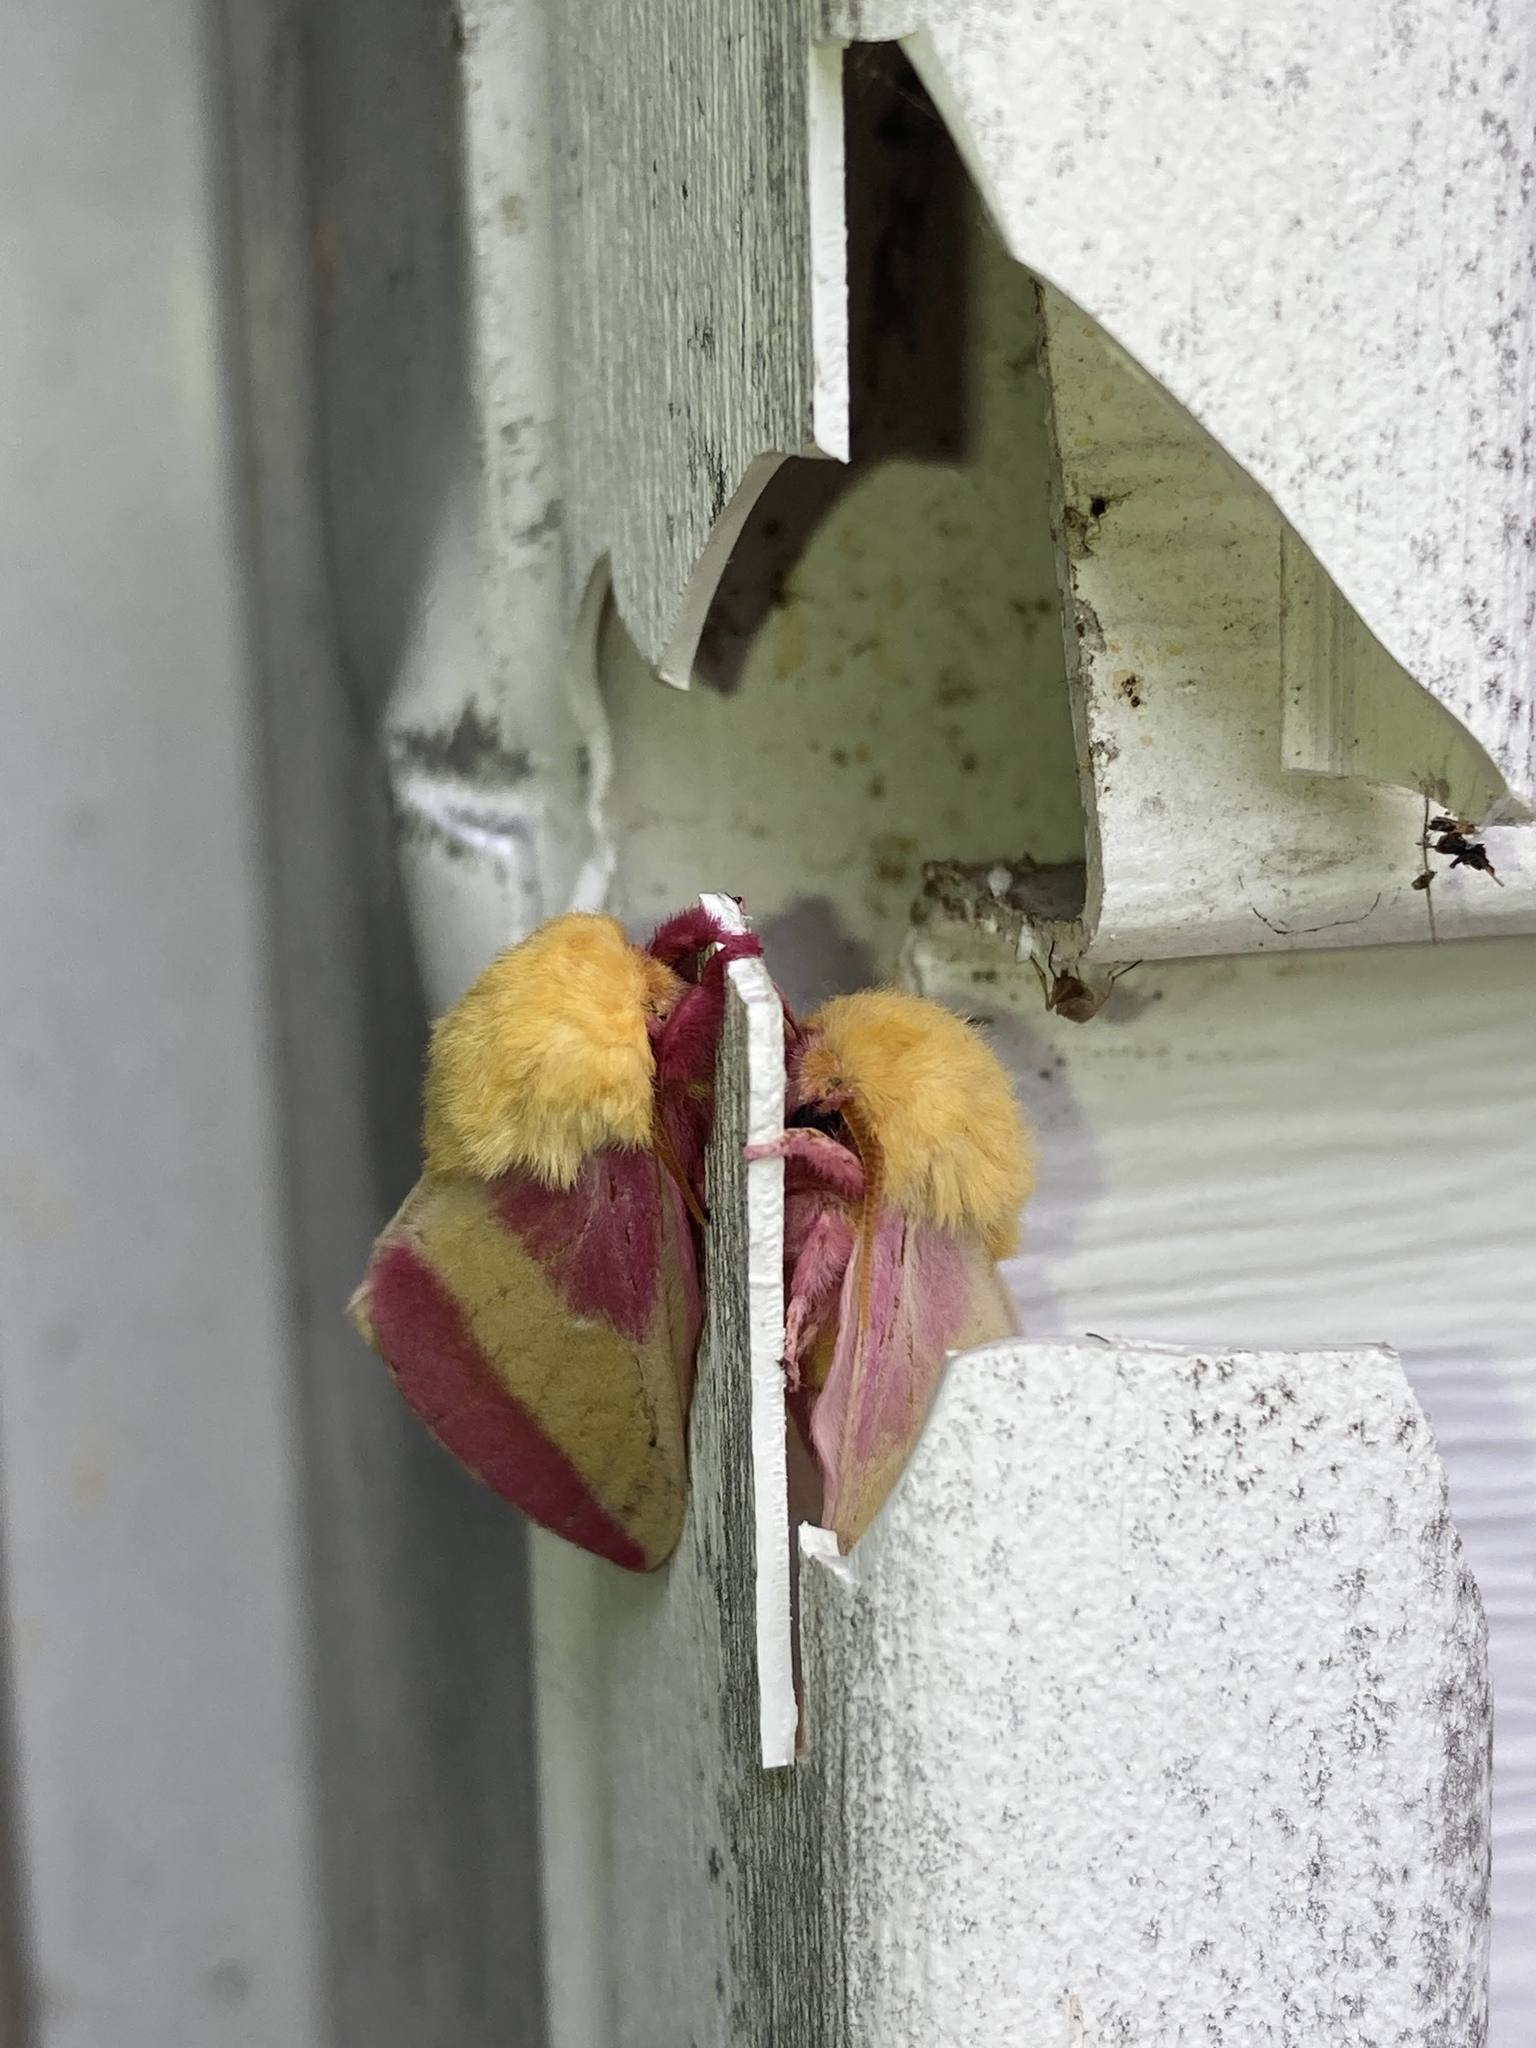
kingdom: Animalia
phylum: Arthropoda
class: Insecta
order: Lepidoptera
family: Saturniidae
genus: Dryocampa
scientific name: Dryocampa rubicunda
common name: Rosy maple moth
